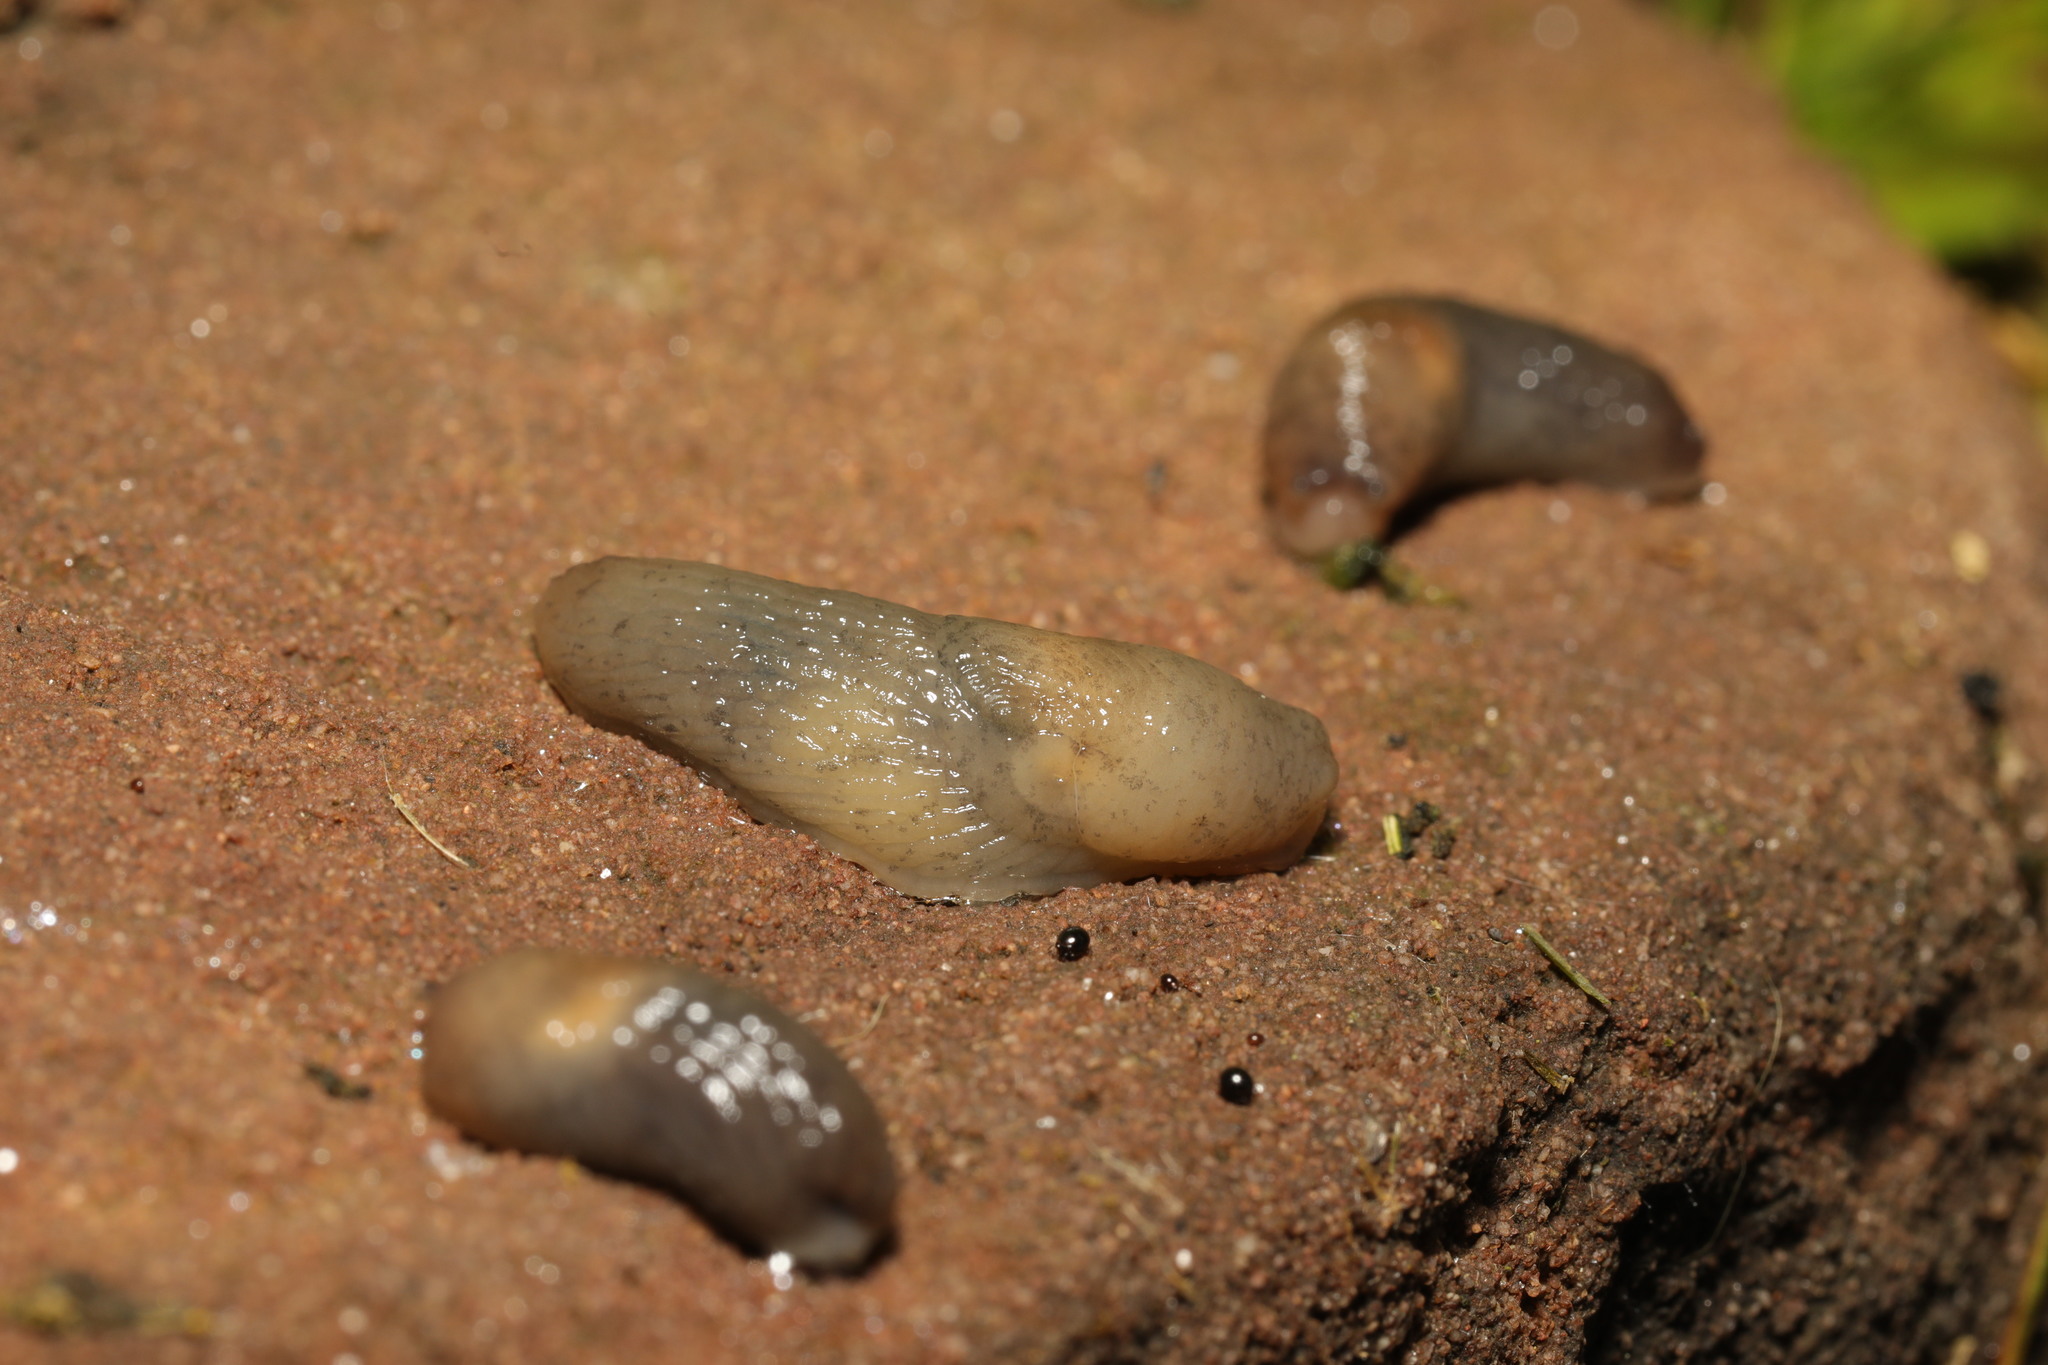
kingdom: Animalia
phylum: Mollusca
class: Gastropoda
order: Stylommatophora
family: Agriolimacidae
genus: Deroceras
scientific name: Deroceras invadens
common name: Caruana's slug
